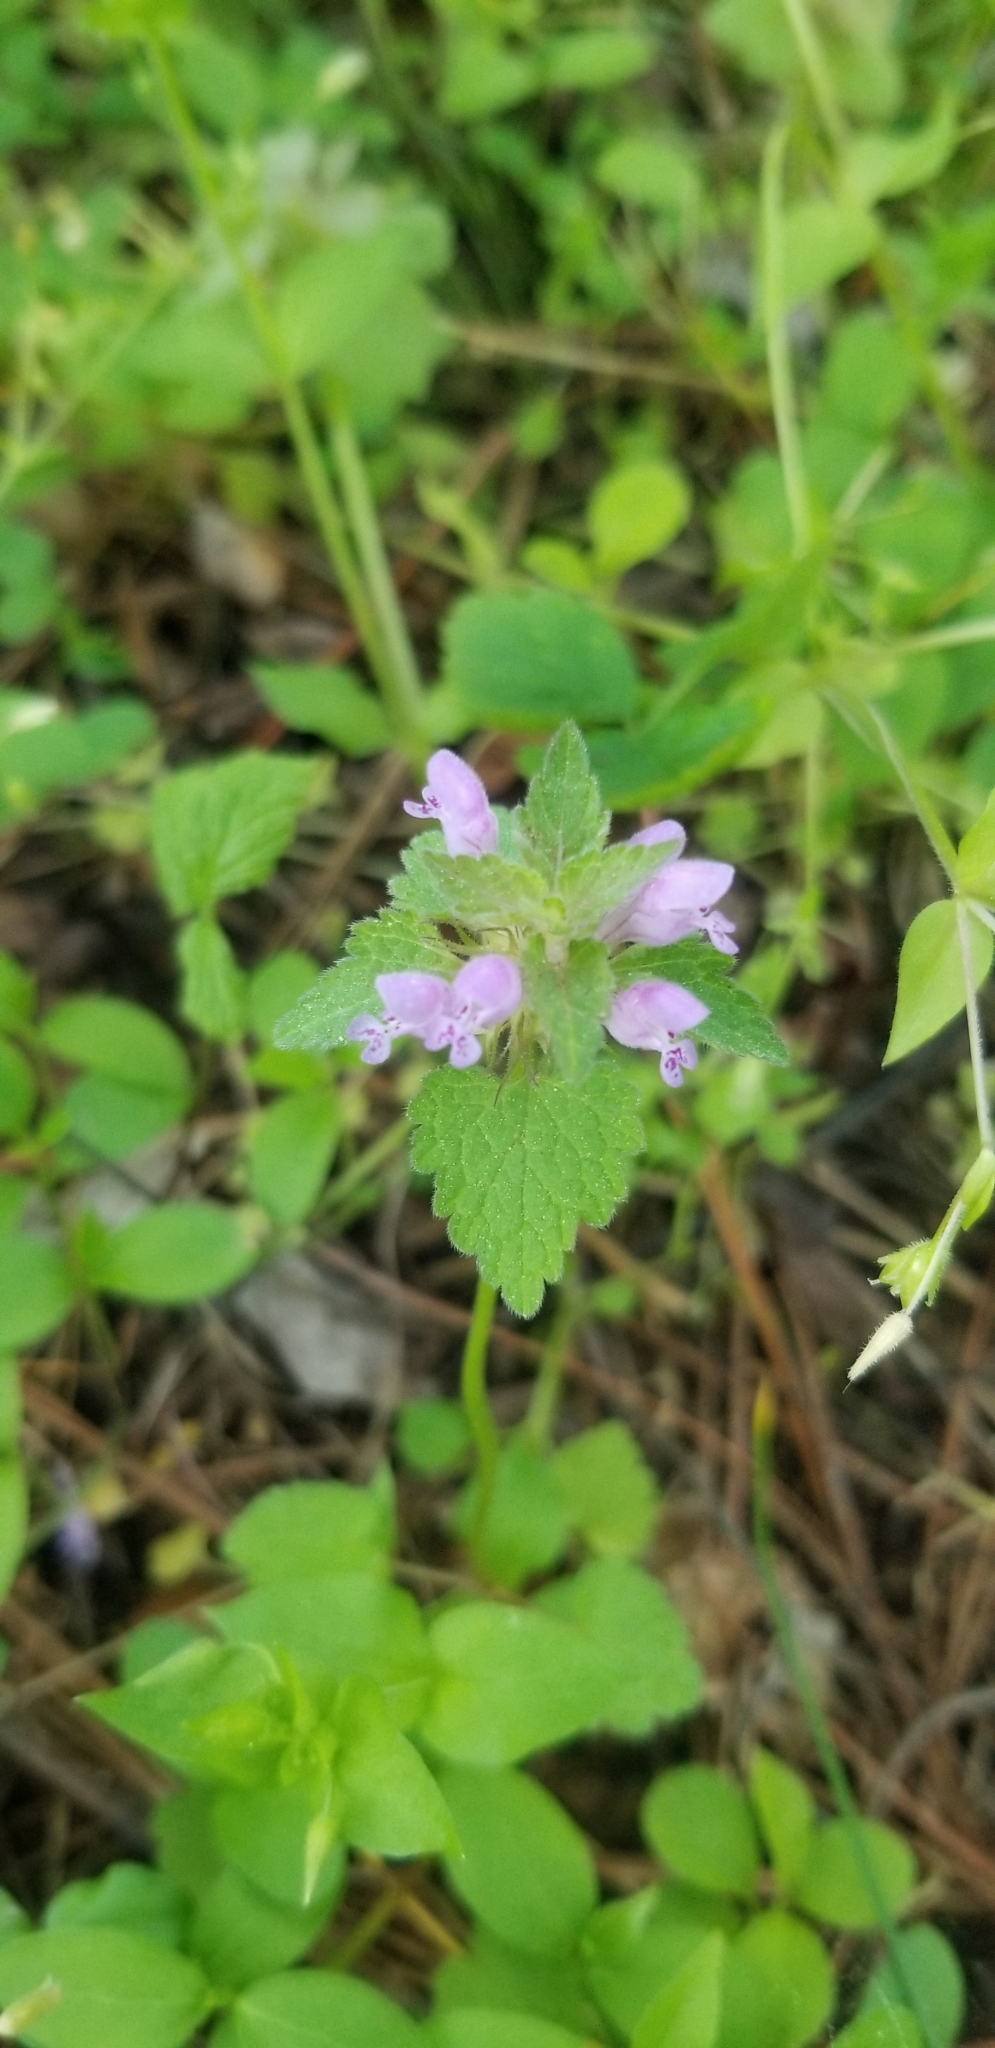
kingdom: Plantae
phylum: Tracheophyta
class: Magnoliopsida
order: Lamiales
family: Lamiaceae
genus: Lamium
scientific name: Lamium purpureum
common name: Red dead-nettle
